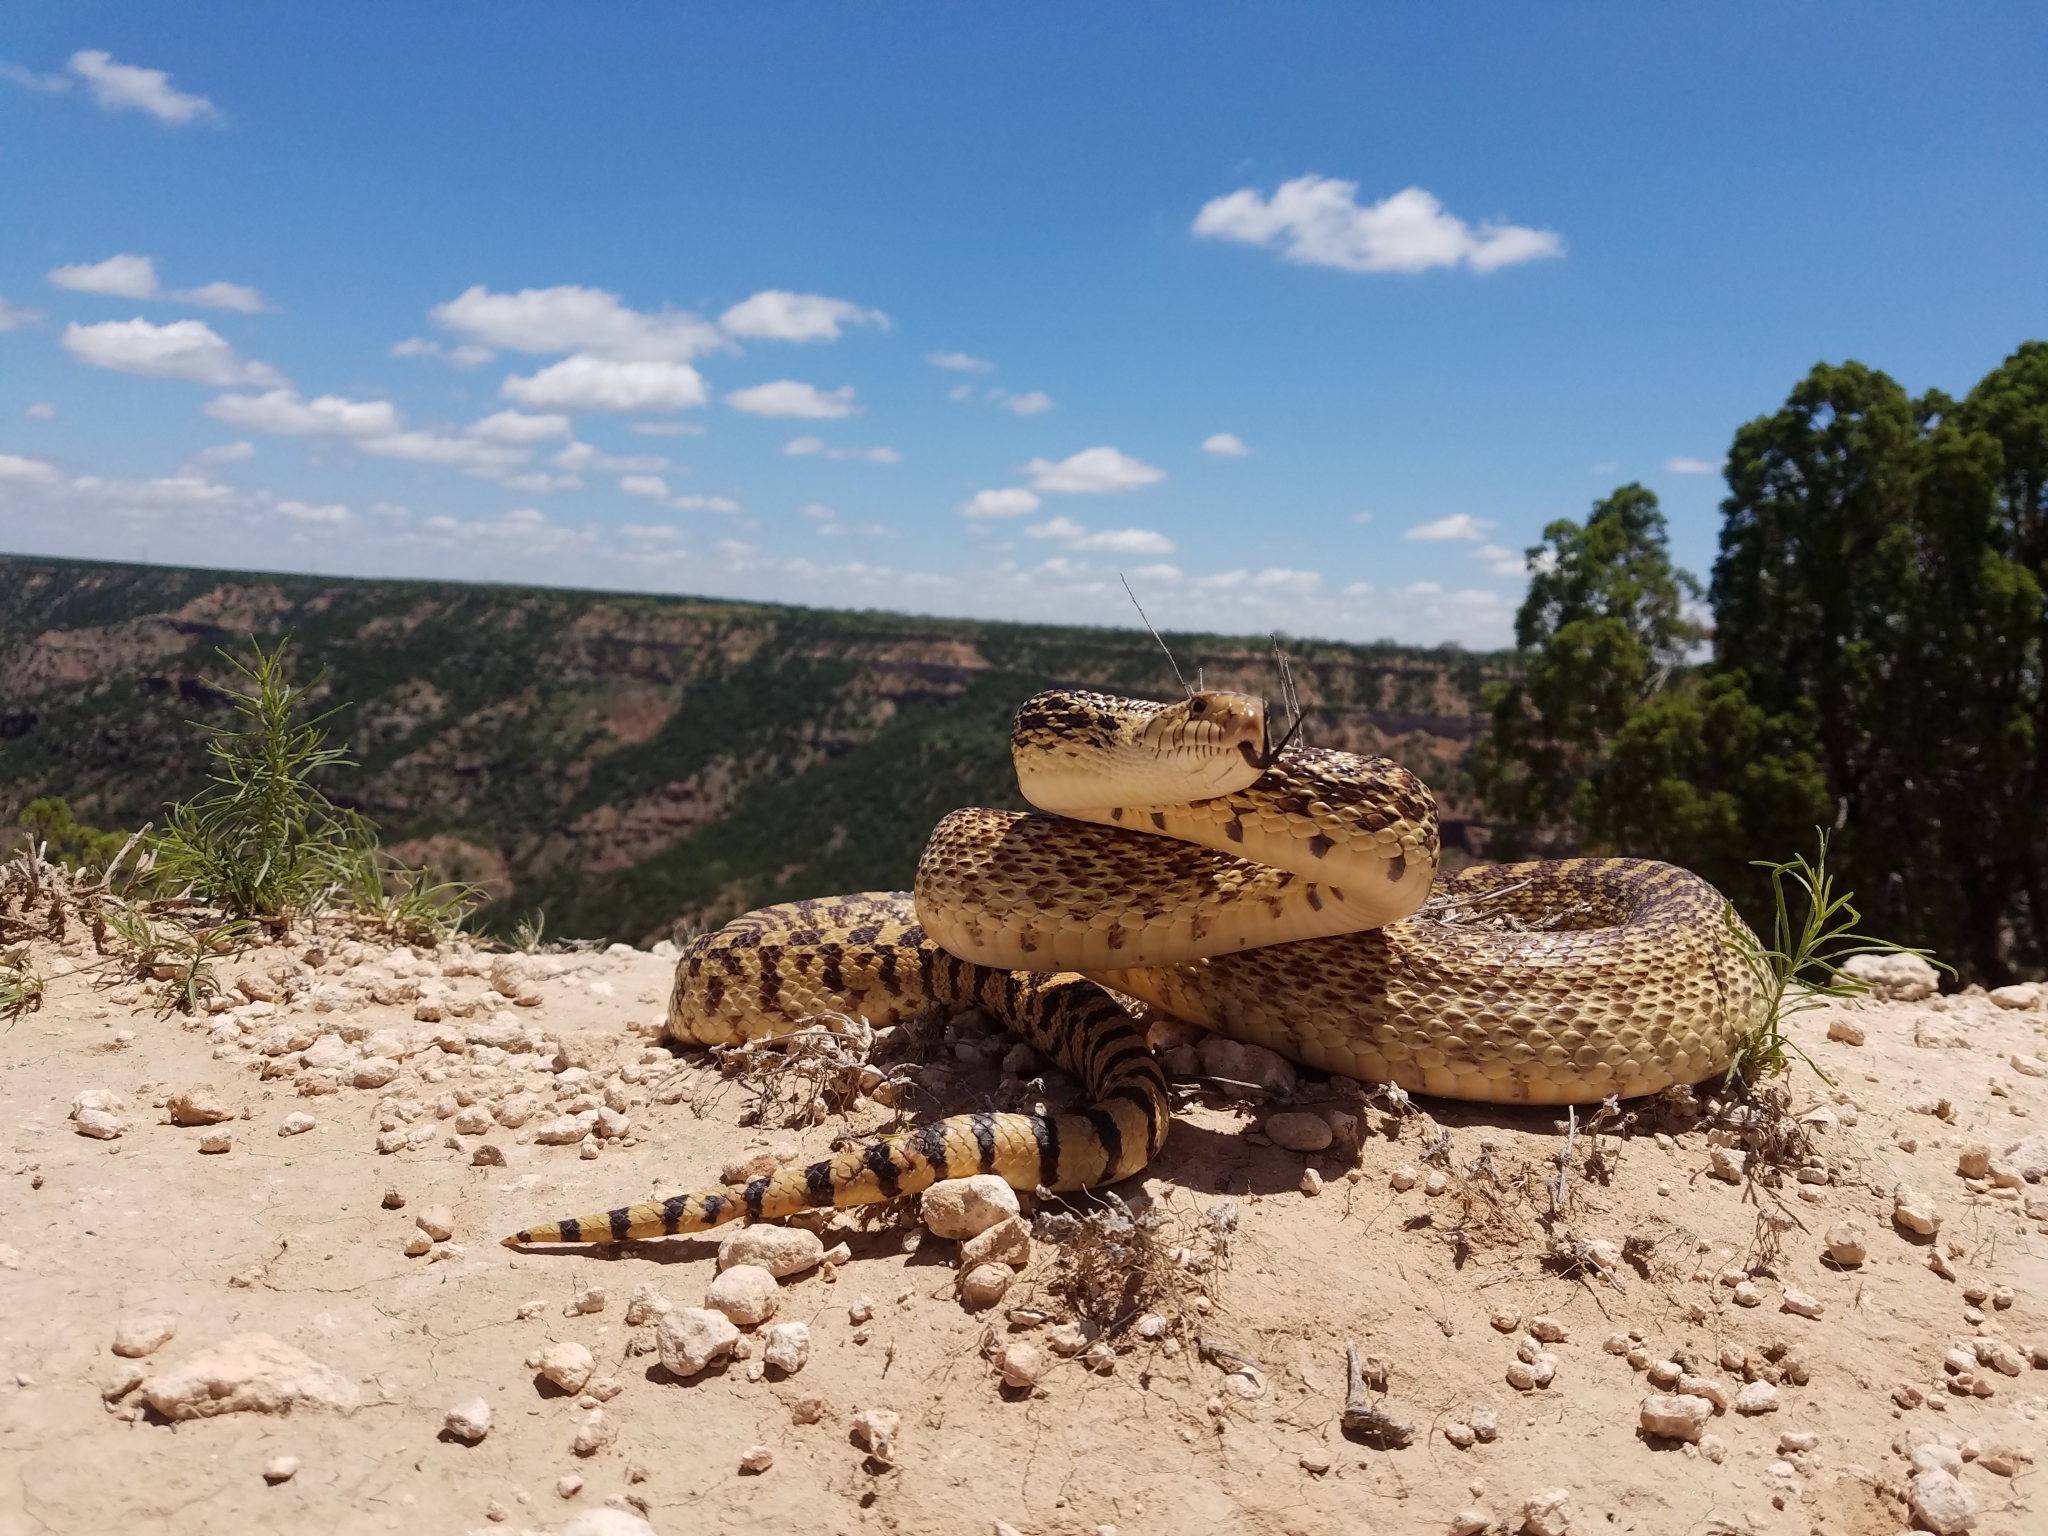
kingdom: Animalia
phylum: Chordata
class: Squamata
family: Colubridae
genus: Pituophis
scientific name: Pituophis catenifer
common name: Gopher snake
